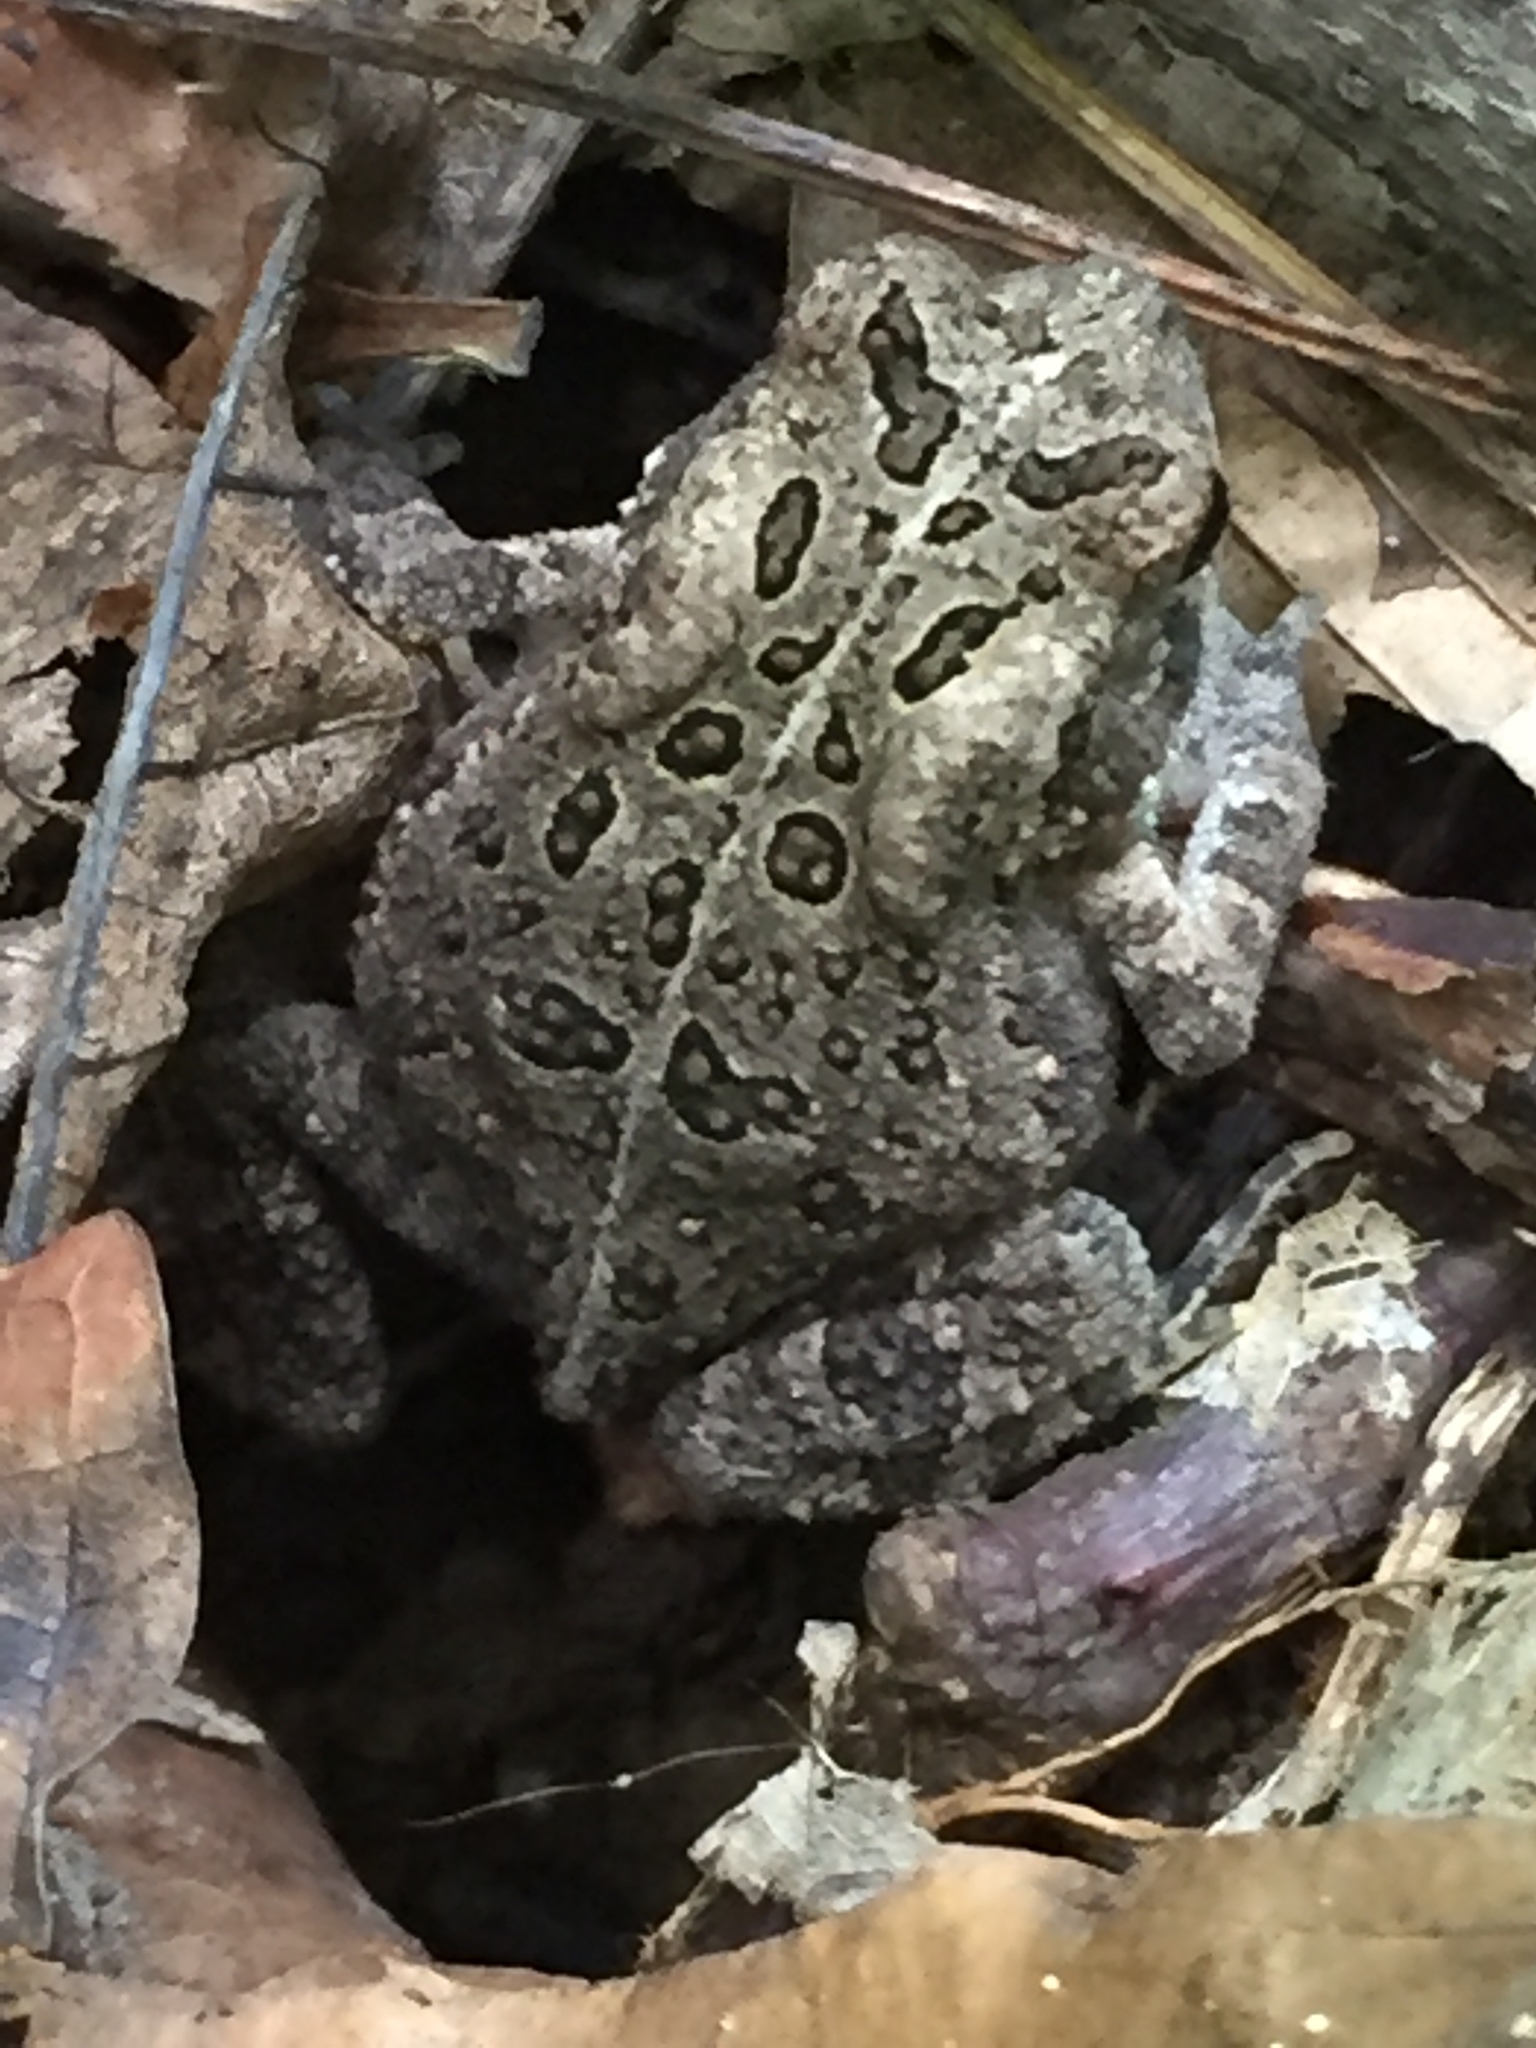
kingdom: Animalia
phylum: Chordata
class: Amphibia
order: Anura
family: Bufonidae
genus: Anaxyrus
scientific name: Anaxyrus fowleri
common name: Fowler's toad
